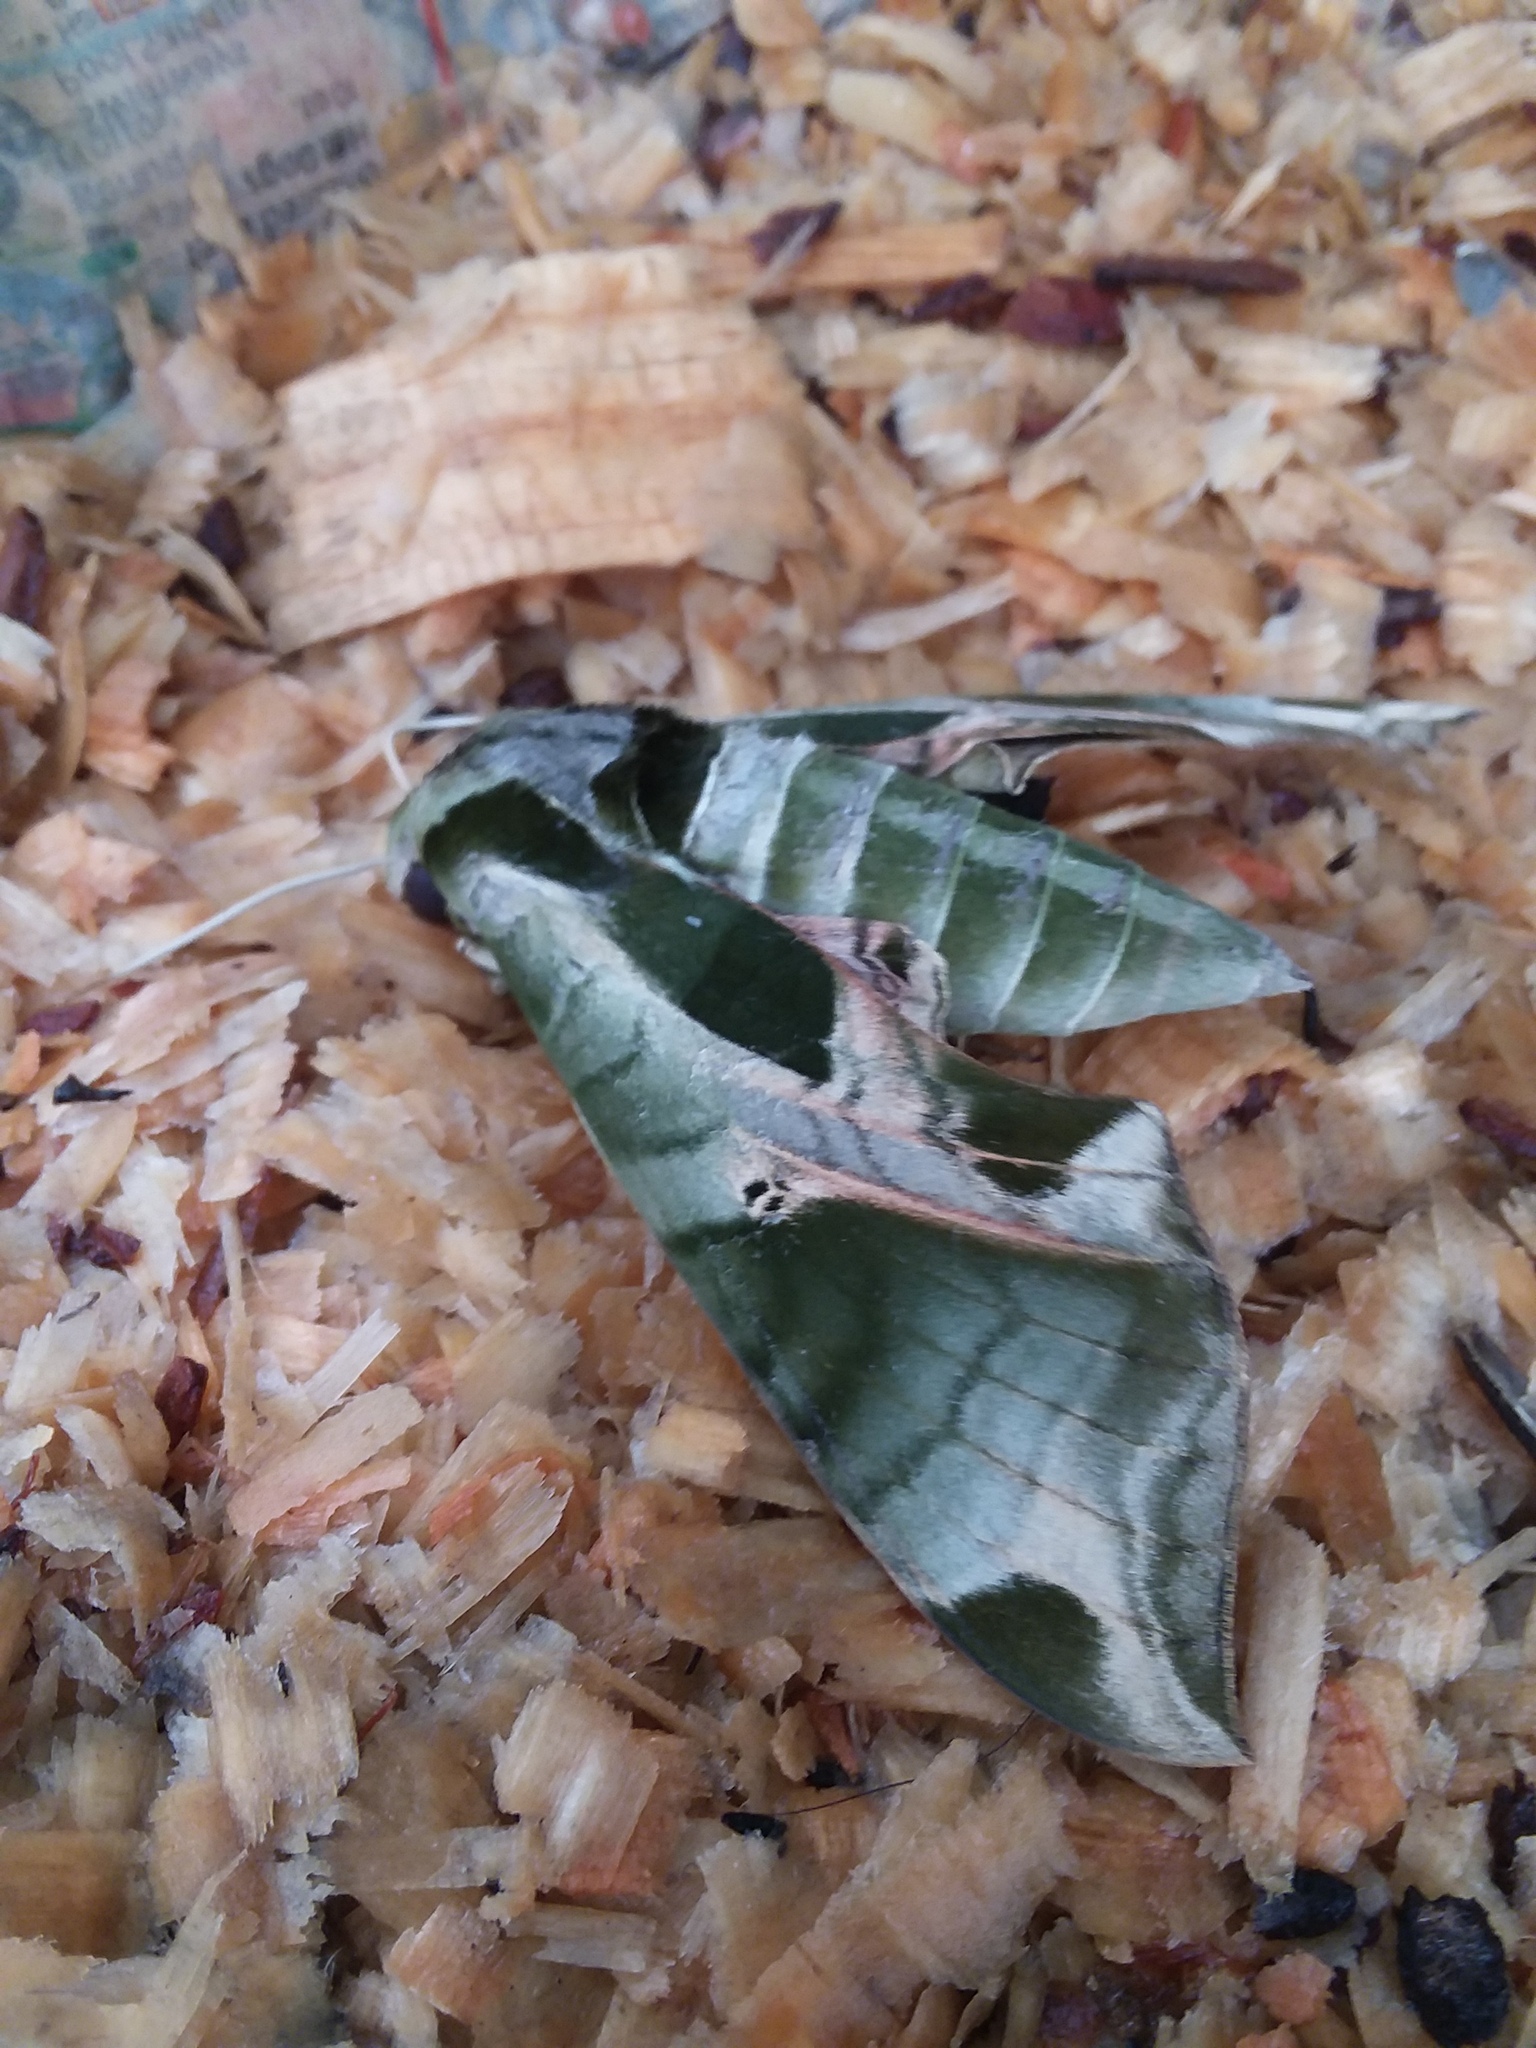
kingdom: Animalia
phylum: Arthropoda
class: Insecta
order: Lepidoptera
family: Sphingidae
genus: Eumorpha
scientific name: Eumorpha pandorus
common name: Pandora sphinx
